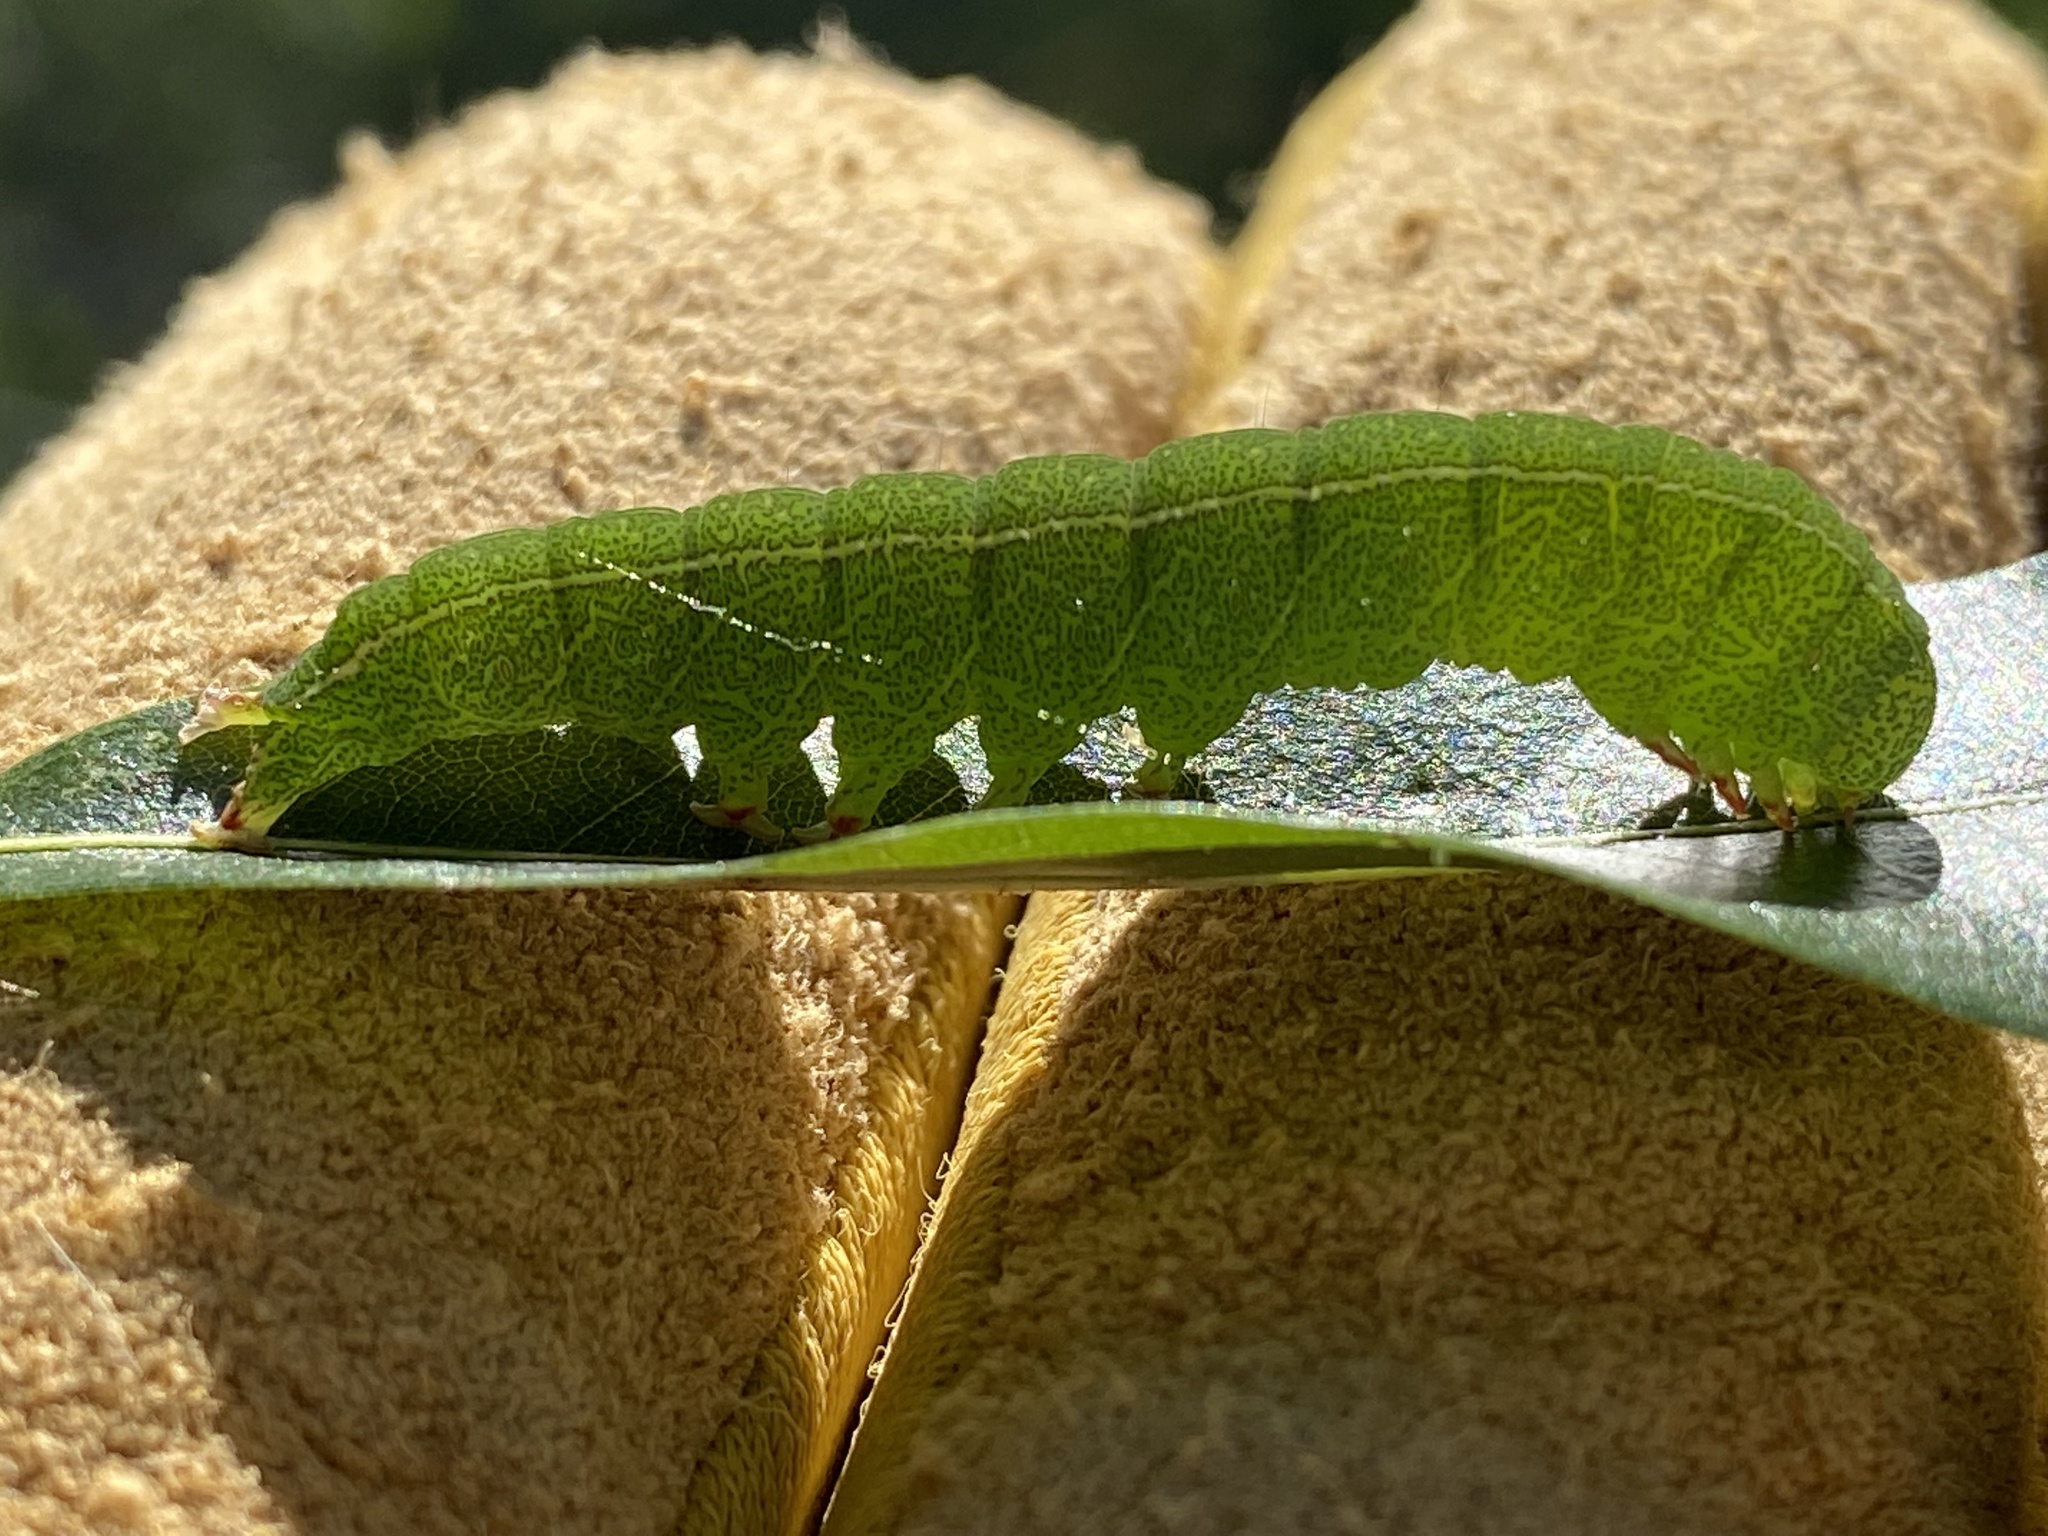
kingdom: Animalia
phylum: Arthropoda
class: Insecta
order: Lepidoptera
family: Erebidae
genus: Panopoda
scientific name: Panopoda rufimargo
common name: Red-lined panopoda moth
